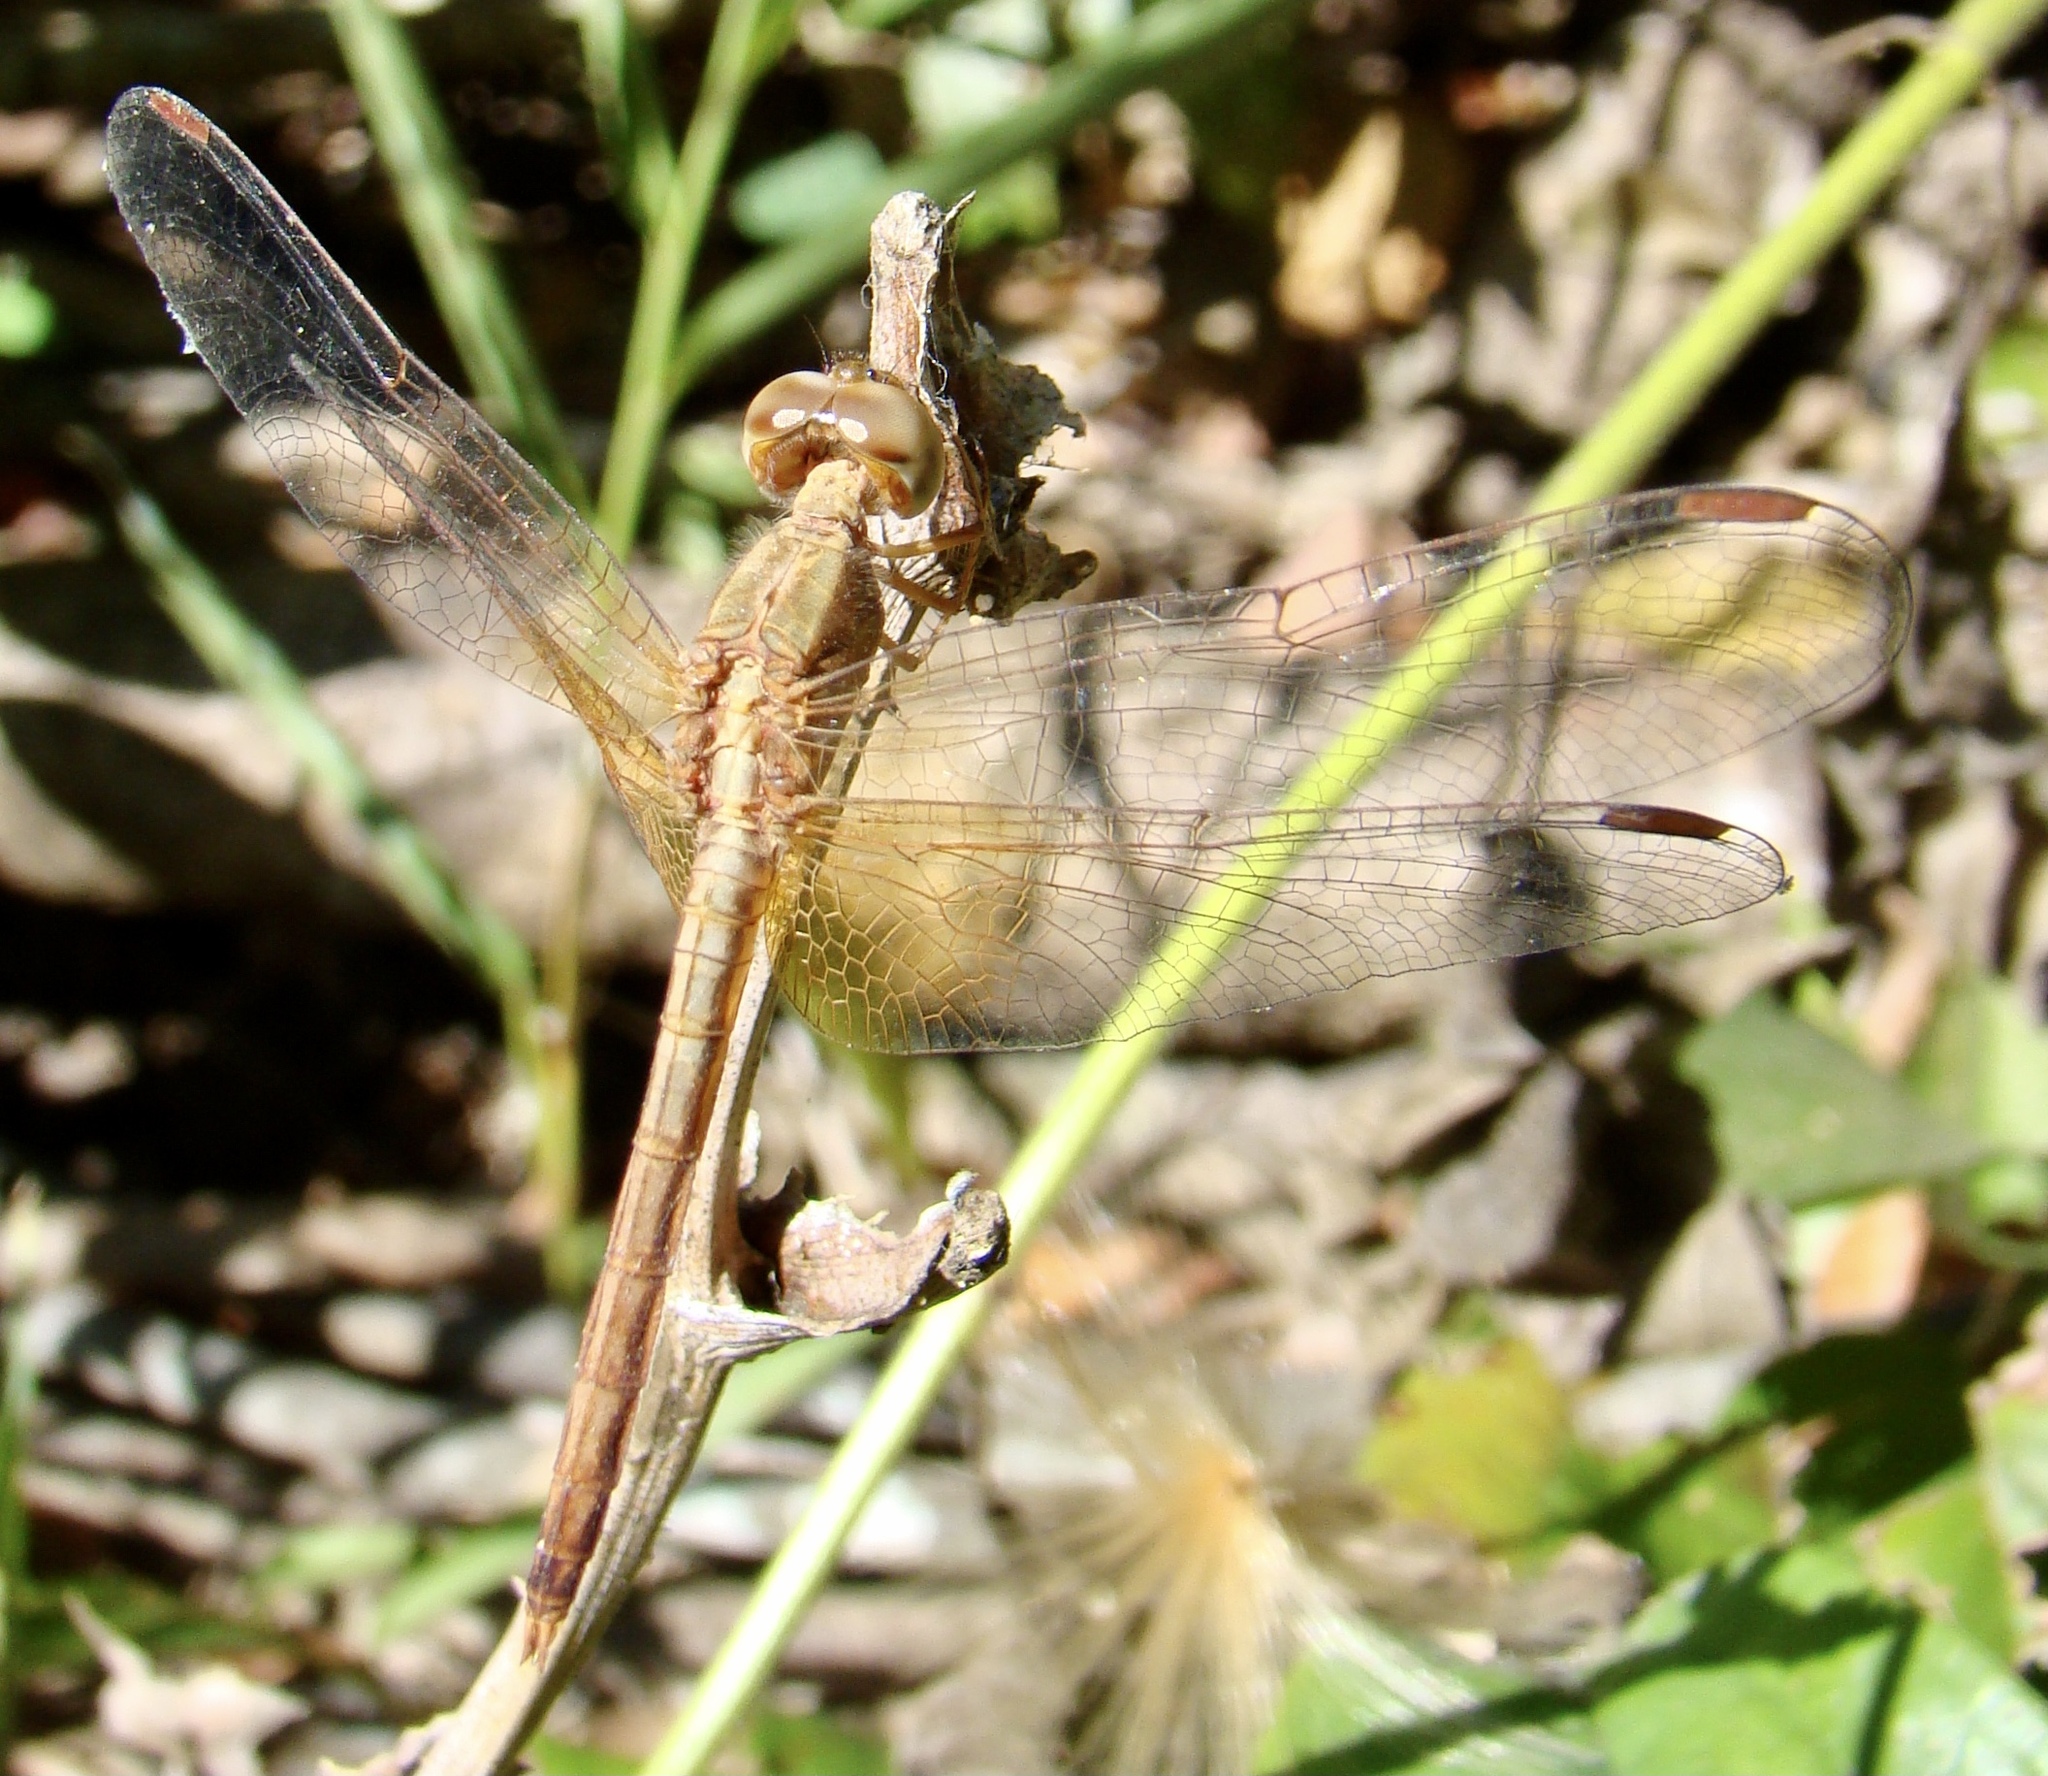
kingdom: Animalia
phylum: Arthropoda
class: Insecta
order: Odonata
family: Libellulidae
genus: Neurothemis
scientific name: Neurothemis intermedia
